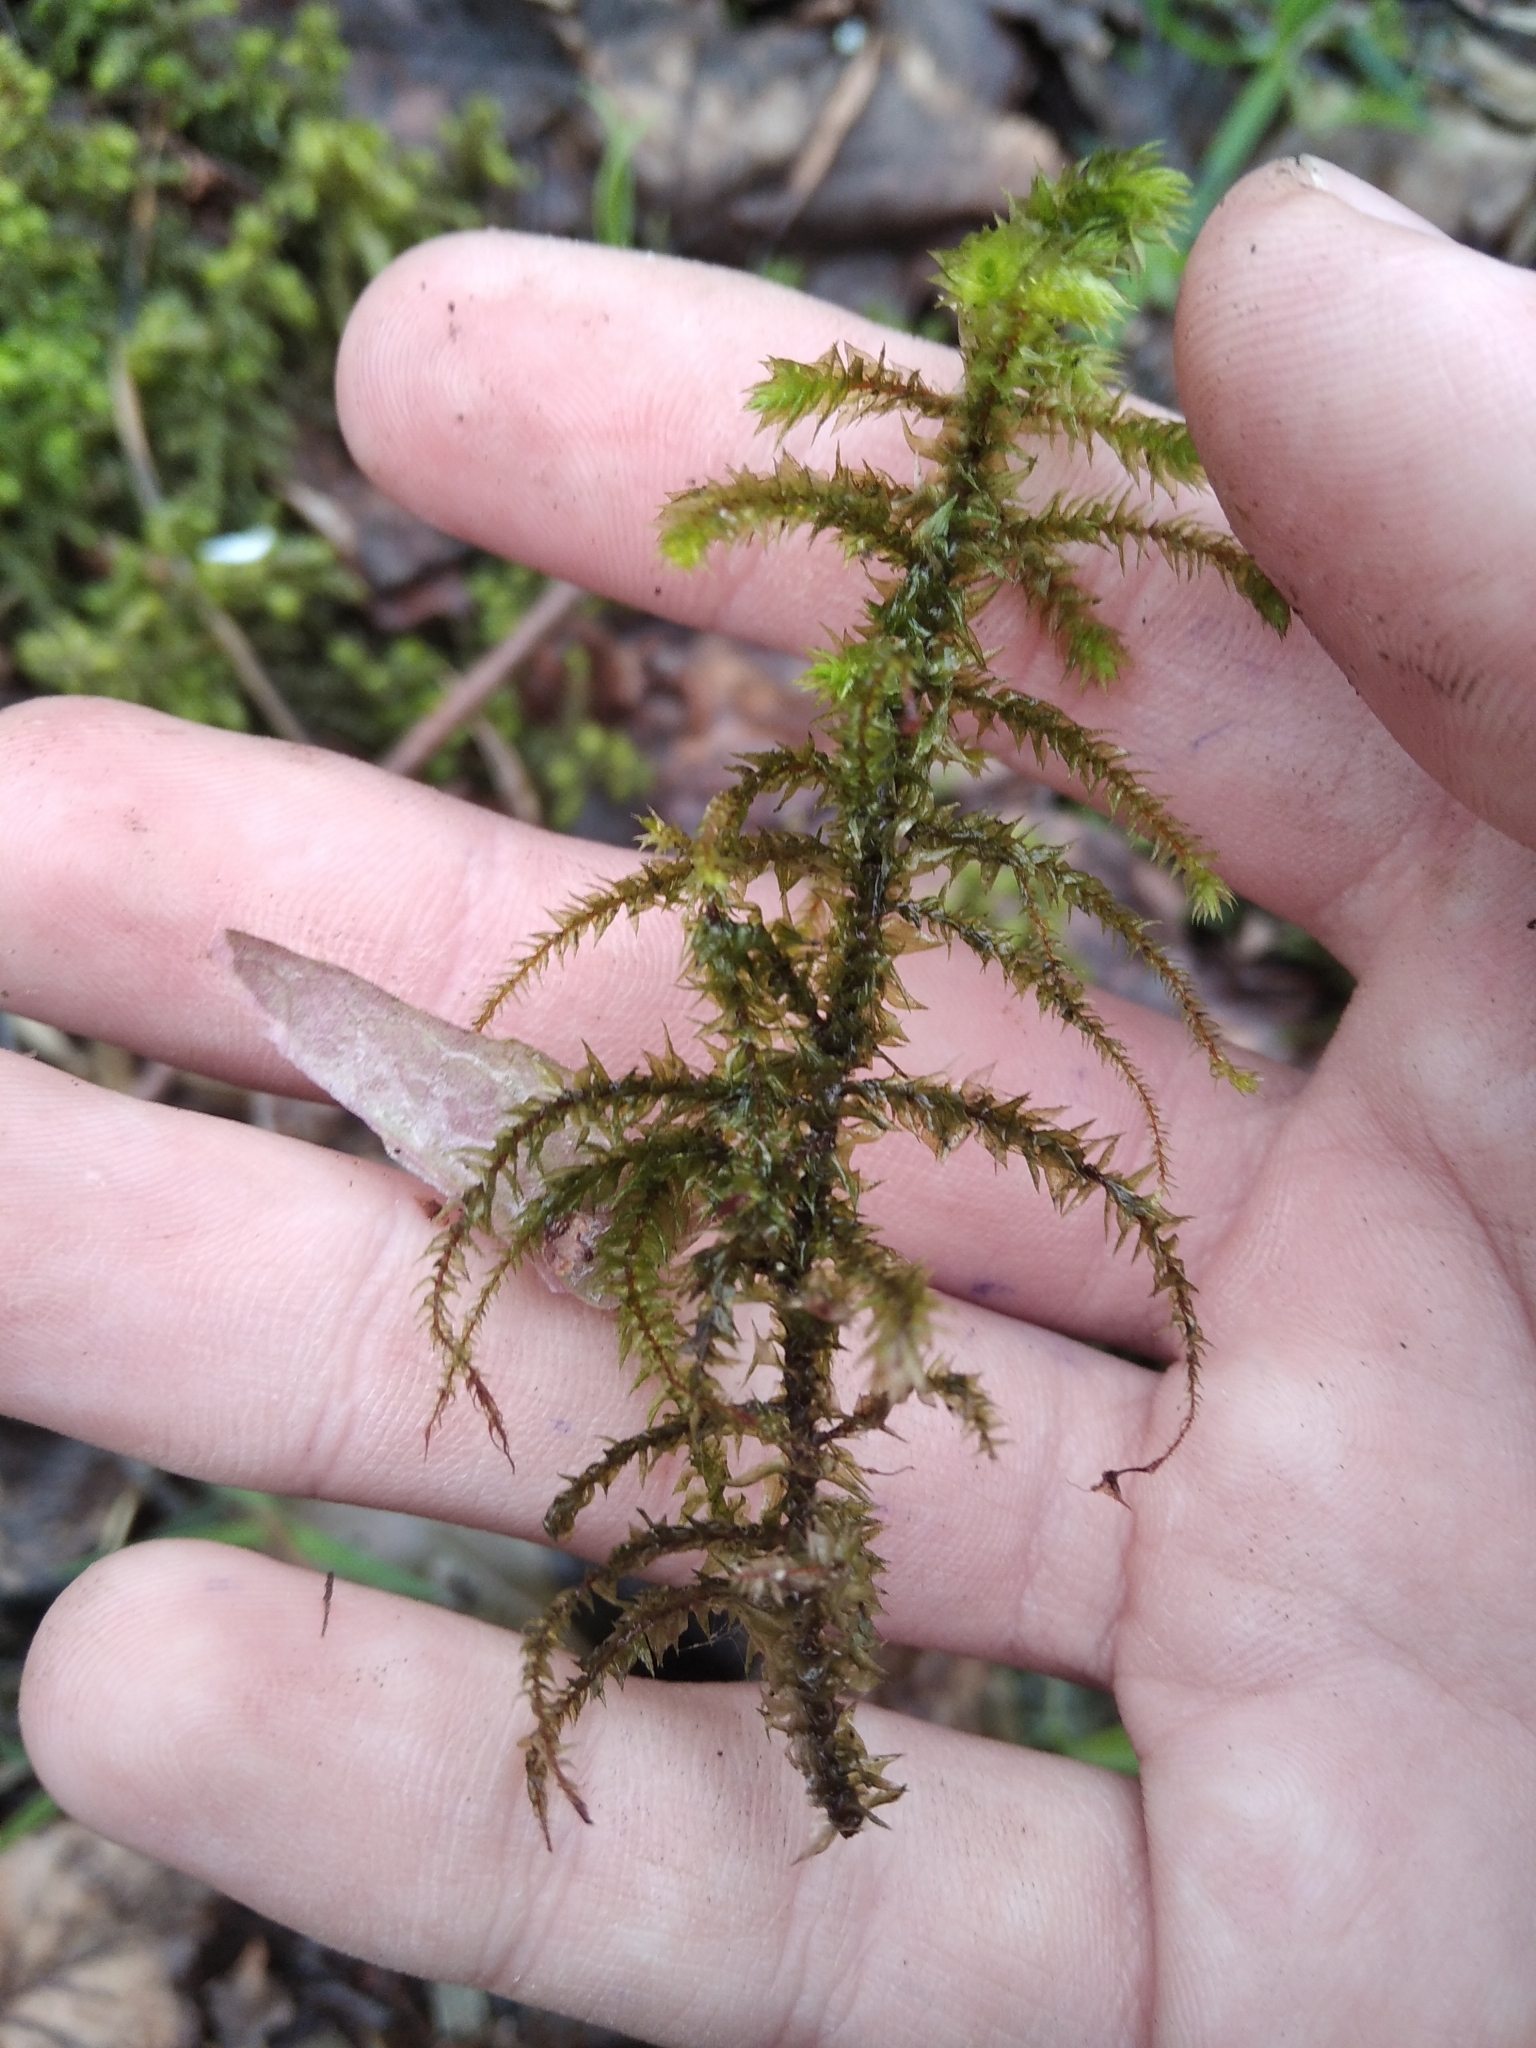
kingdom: Plantae
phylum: Bryophyta
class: Bryopsida
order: Hypnales
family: Hylocomiaceae
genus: Hylocomiadelphus
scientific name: Hylocomiadelphus triquetrus
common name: Rough goose neck moss
